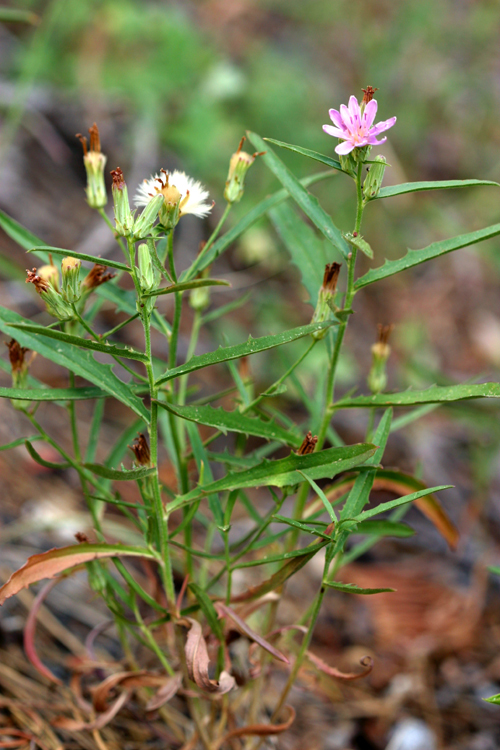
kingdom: Plantae
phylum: Tracheophyta
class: Magnoliopsida
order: Asterales
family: Asteraceae
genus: Stephanomeria
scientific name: Stephanomeria lactucina
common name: Large-flowered wirelettuce
